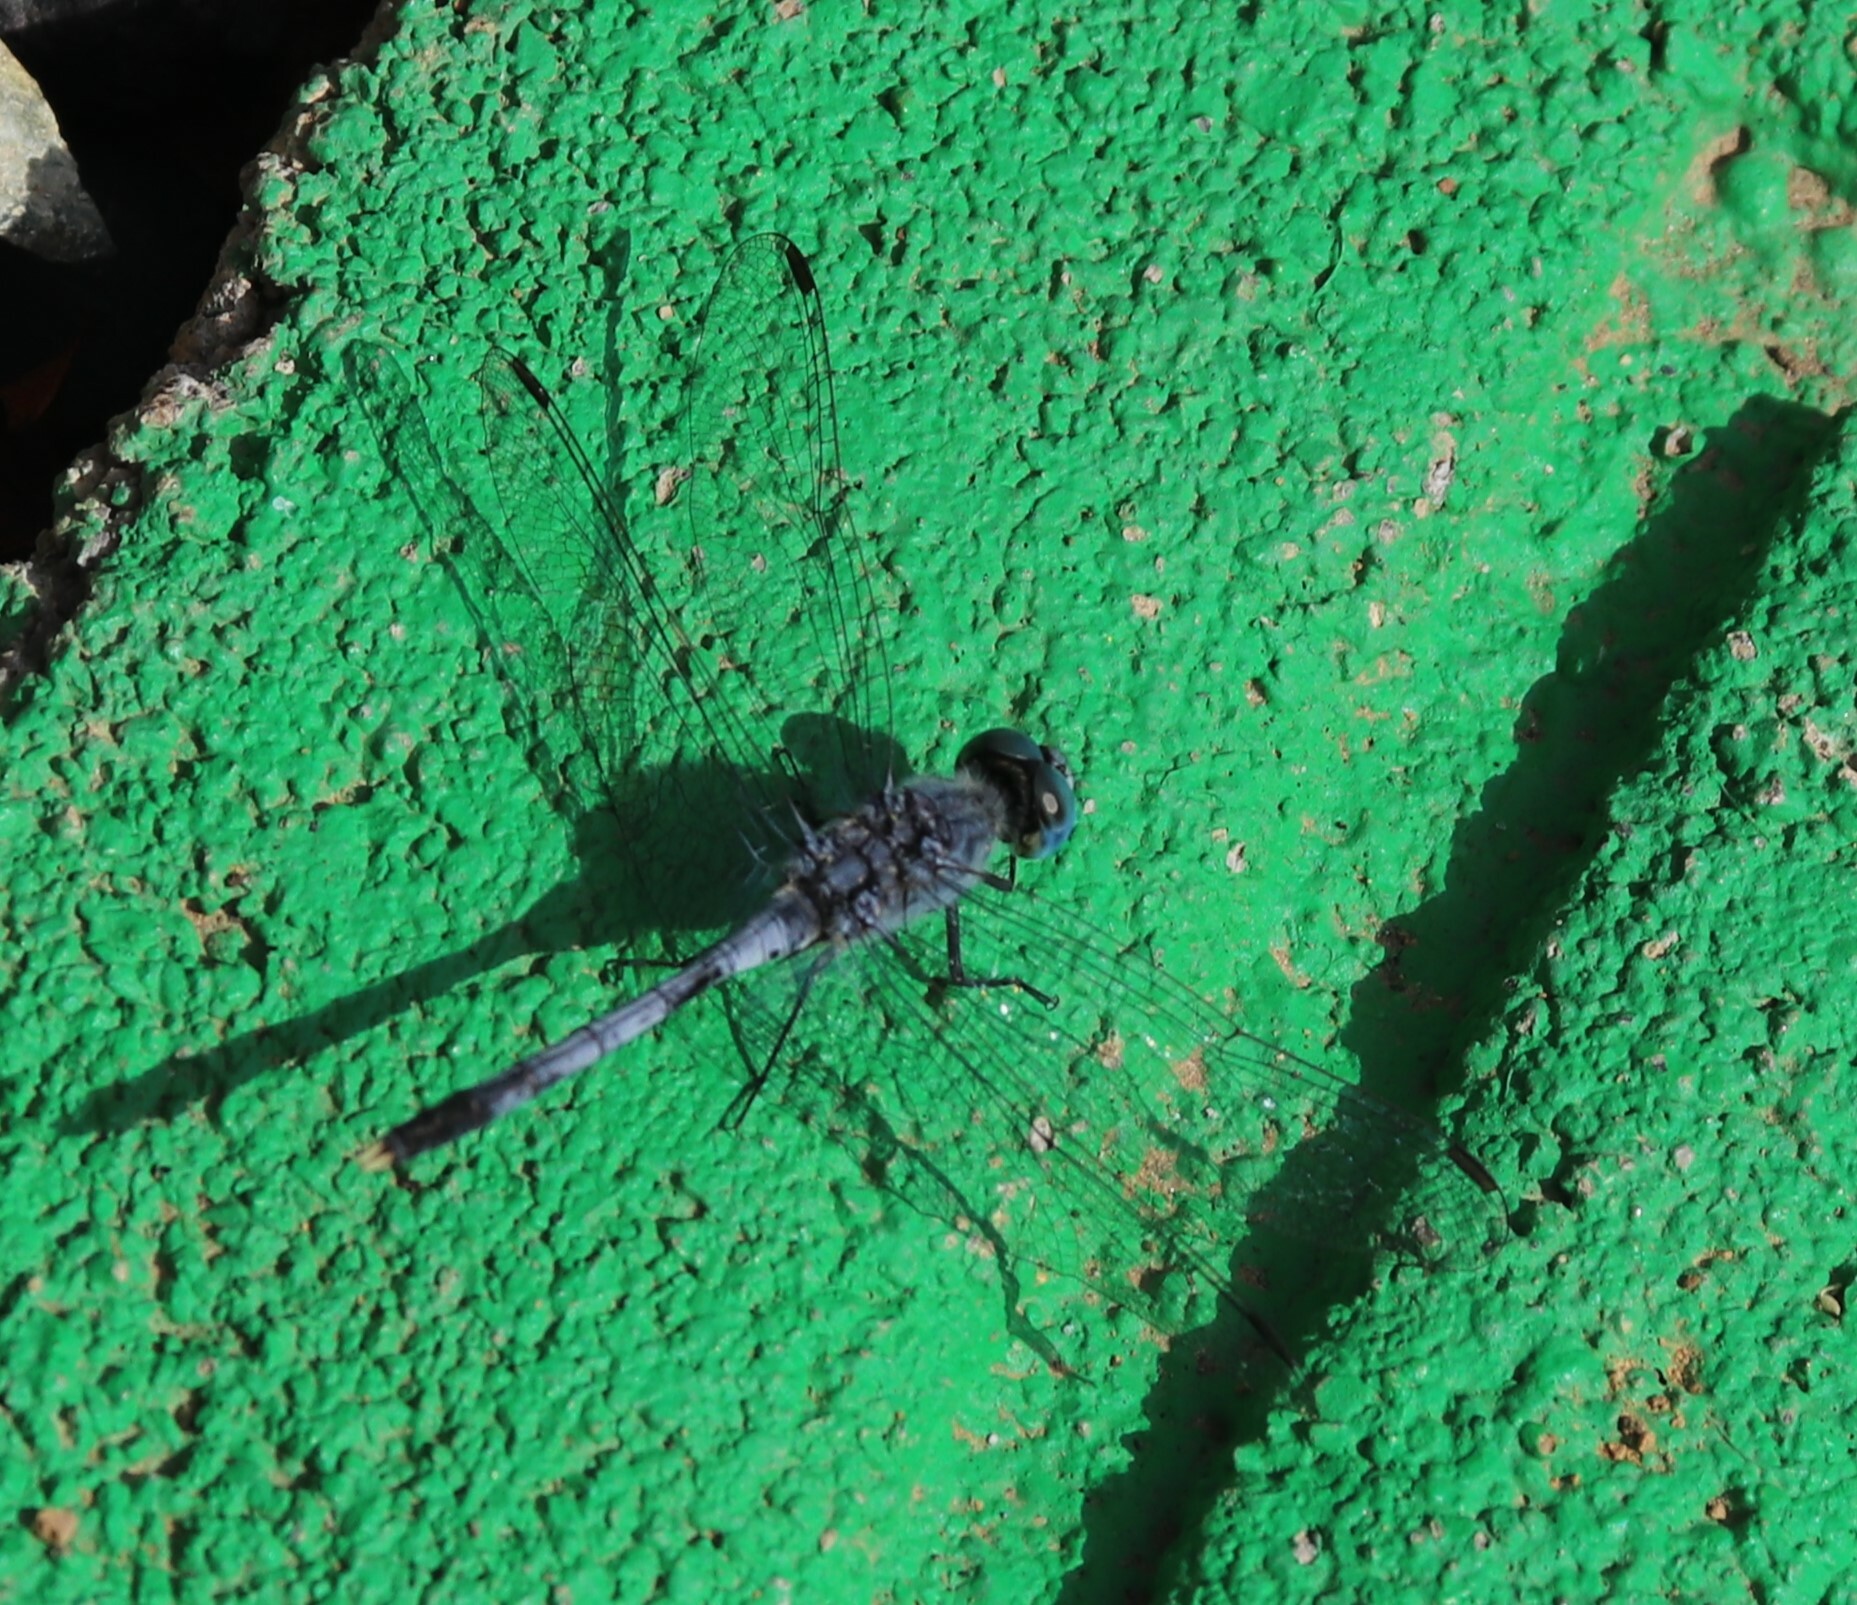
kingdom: Animalia
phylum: Arthropoda
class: Insecta
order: Odonata
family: Libellulidae
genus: Diplacodes
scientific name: Diplacodes trivialis
